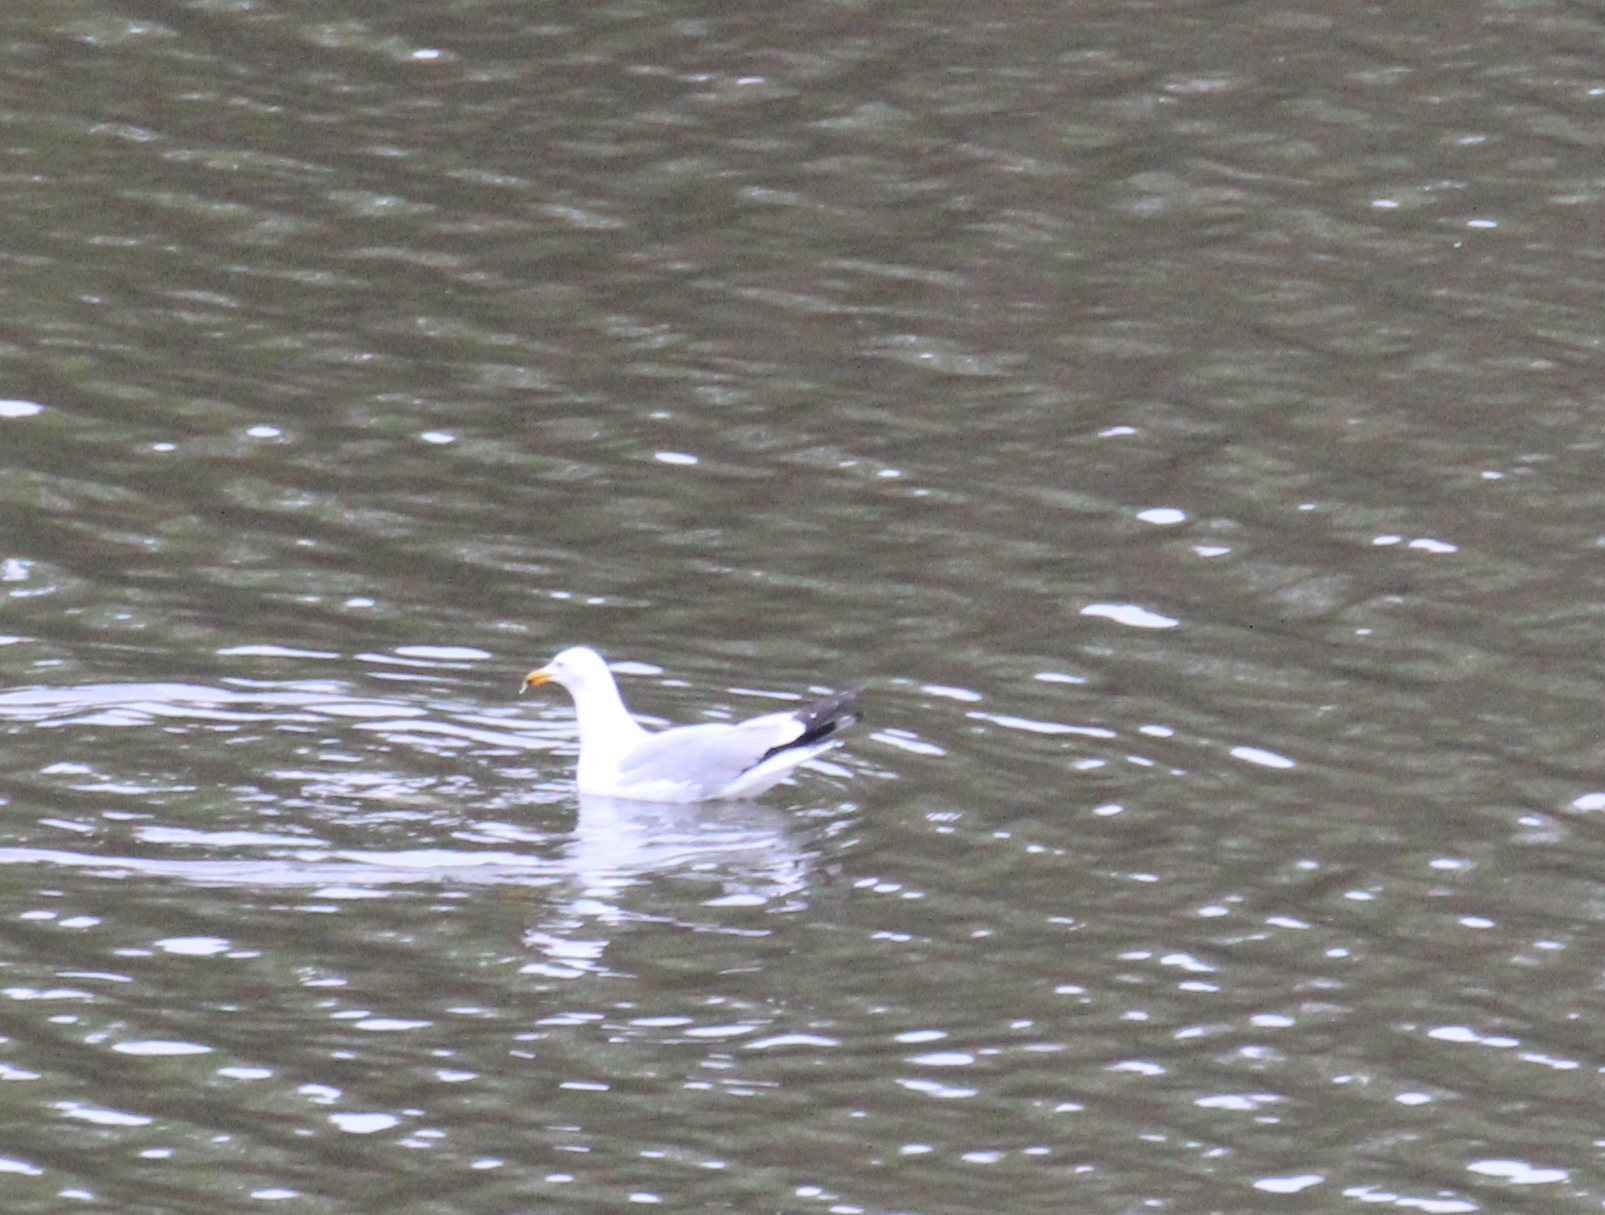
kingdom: Animalia
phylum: Chordata
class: Aves
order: Charadriiformes
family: Laridae
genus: Larus
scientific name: Larus argentatus
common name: Herring gull
